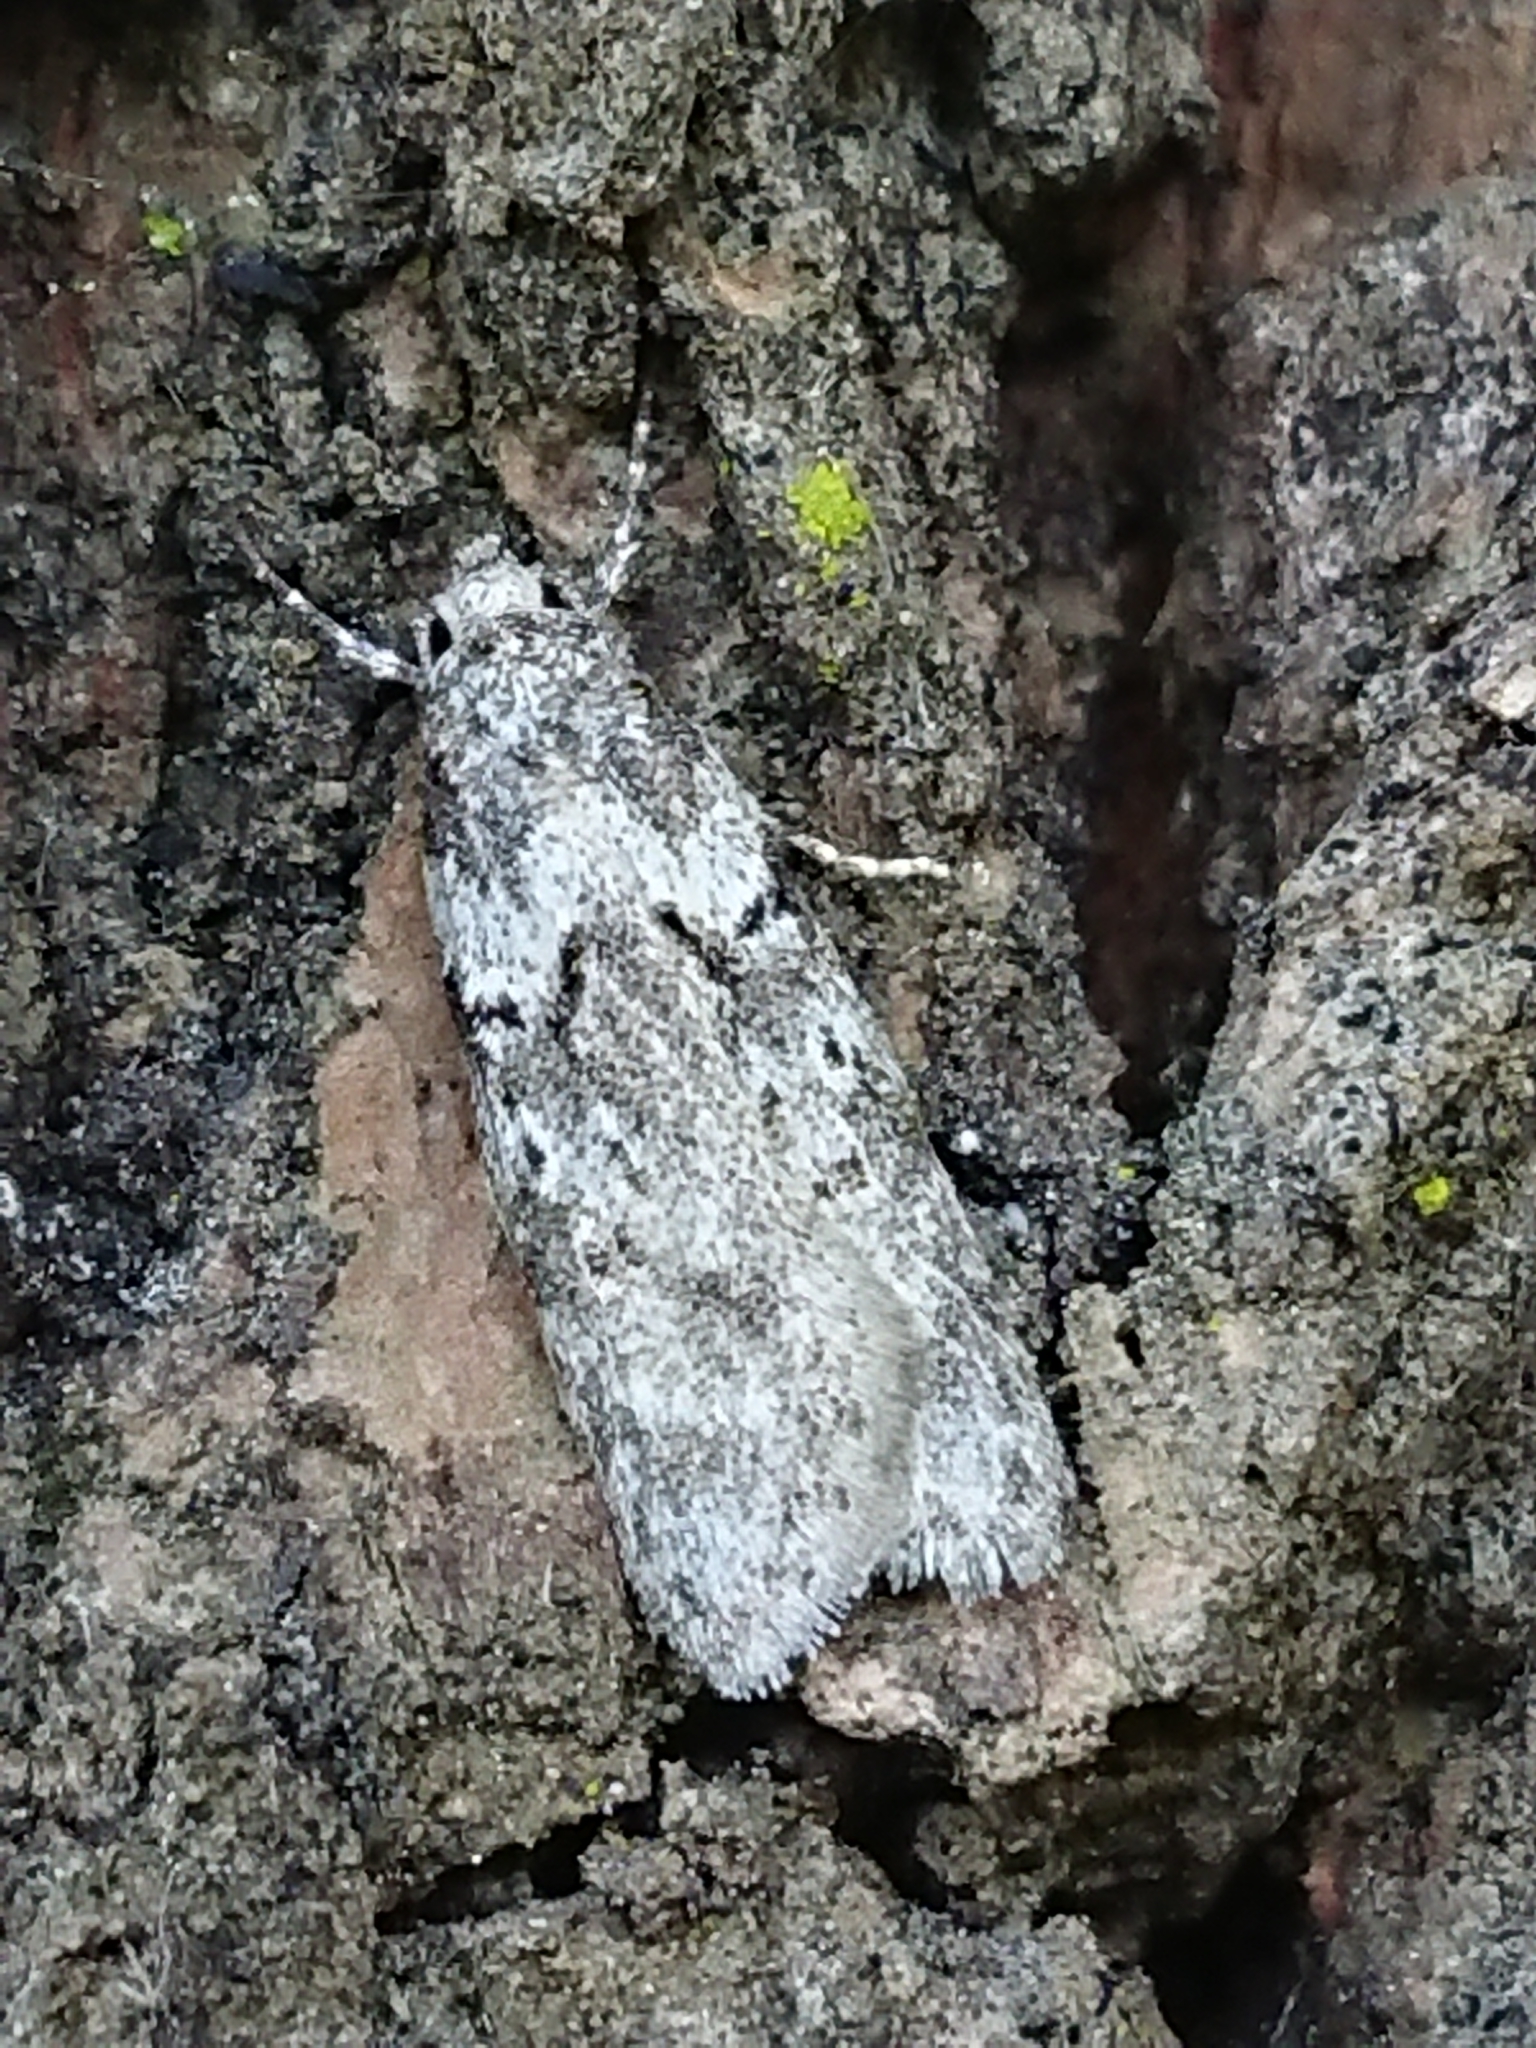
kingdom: Animalia
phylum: Arthropoda
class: Insecta
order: Lepidoptera
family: Oecophoridae
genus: Izatha
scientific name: Izatha convulsella
